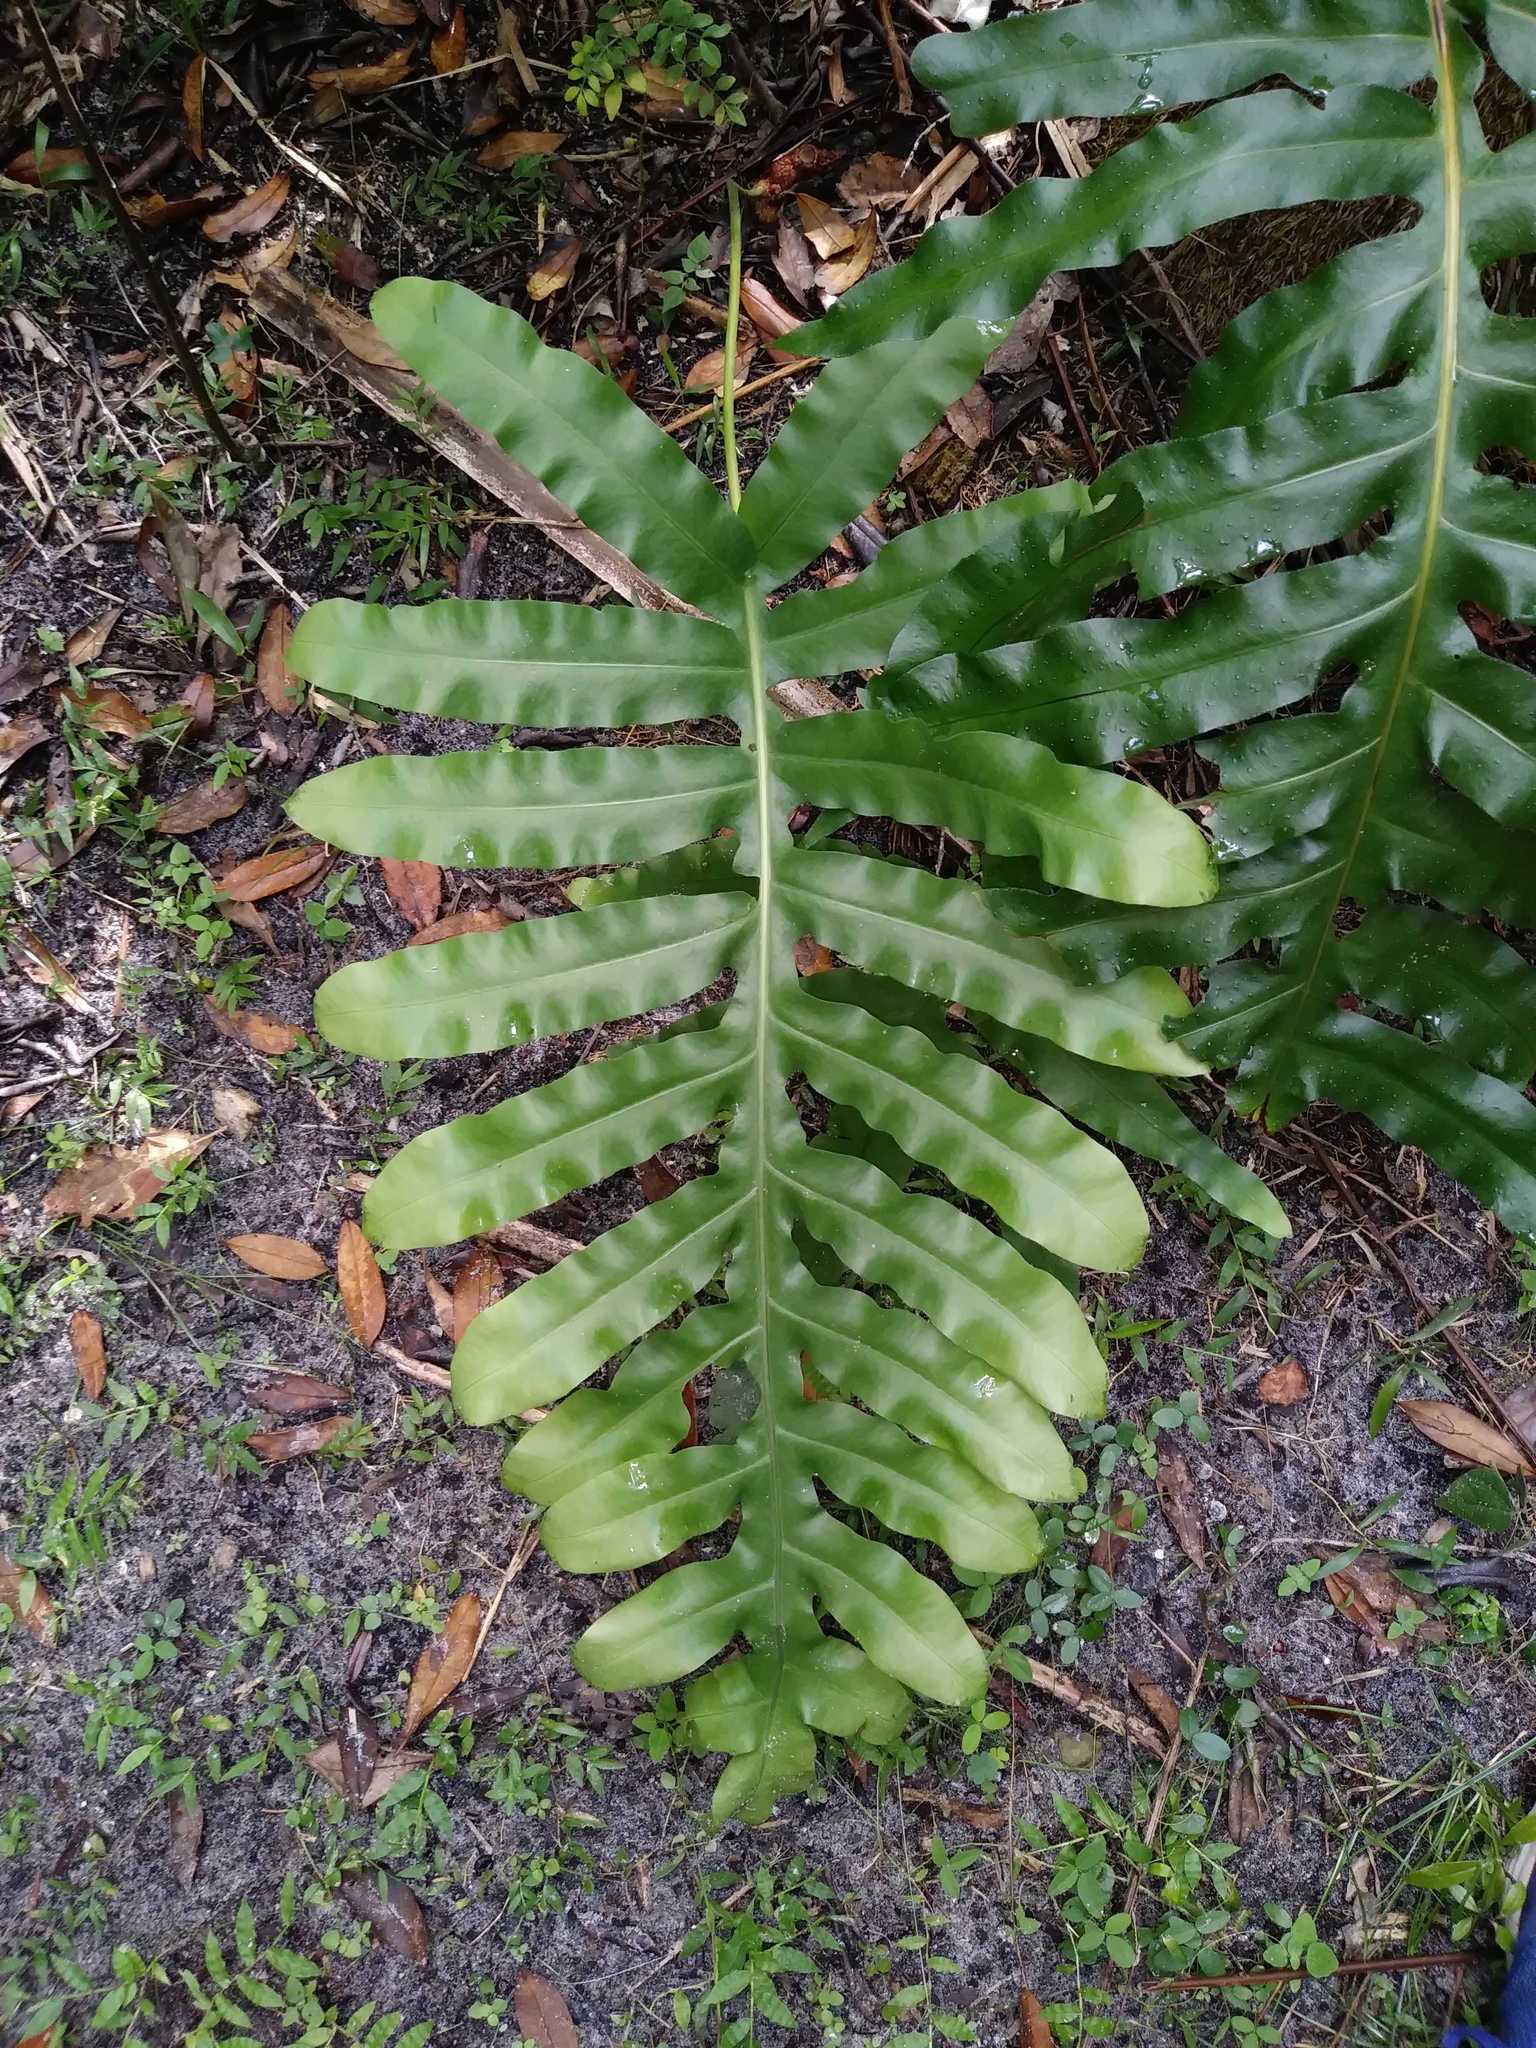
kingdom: Plantae
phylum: Tracheophyta
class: Polypodiopsida
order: Polypodiales
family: Polypodiaceae
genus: Phlebodium
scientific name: Phlebodium aureum
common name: Gold-foot fern
